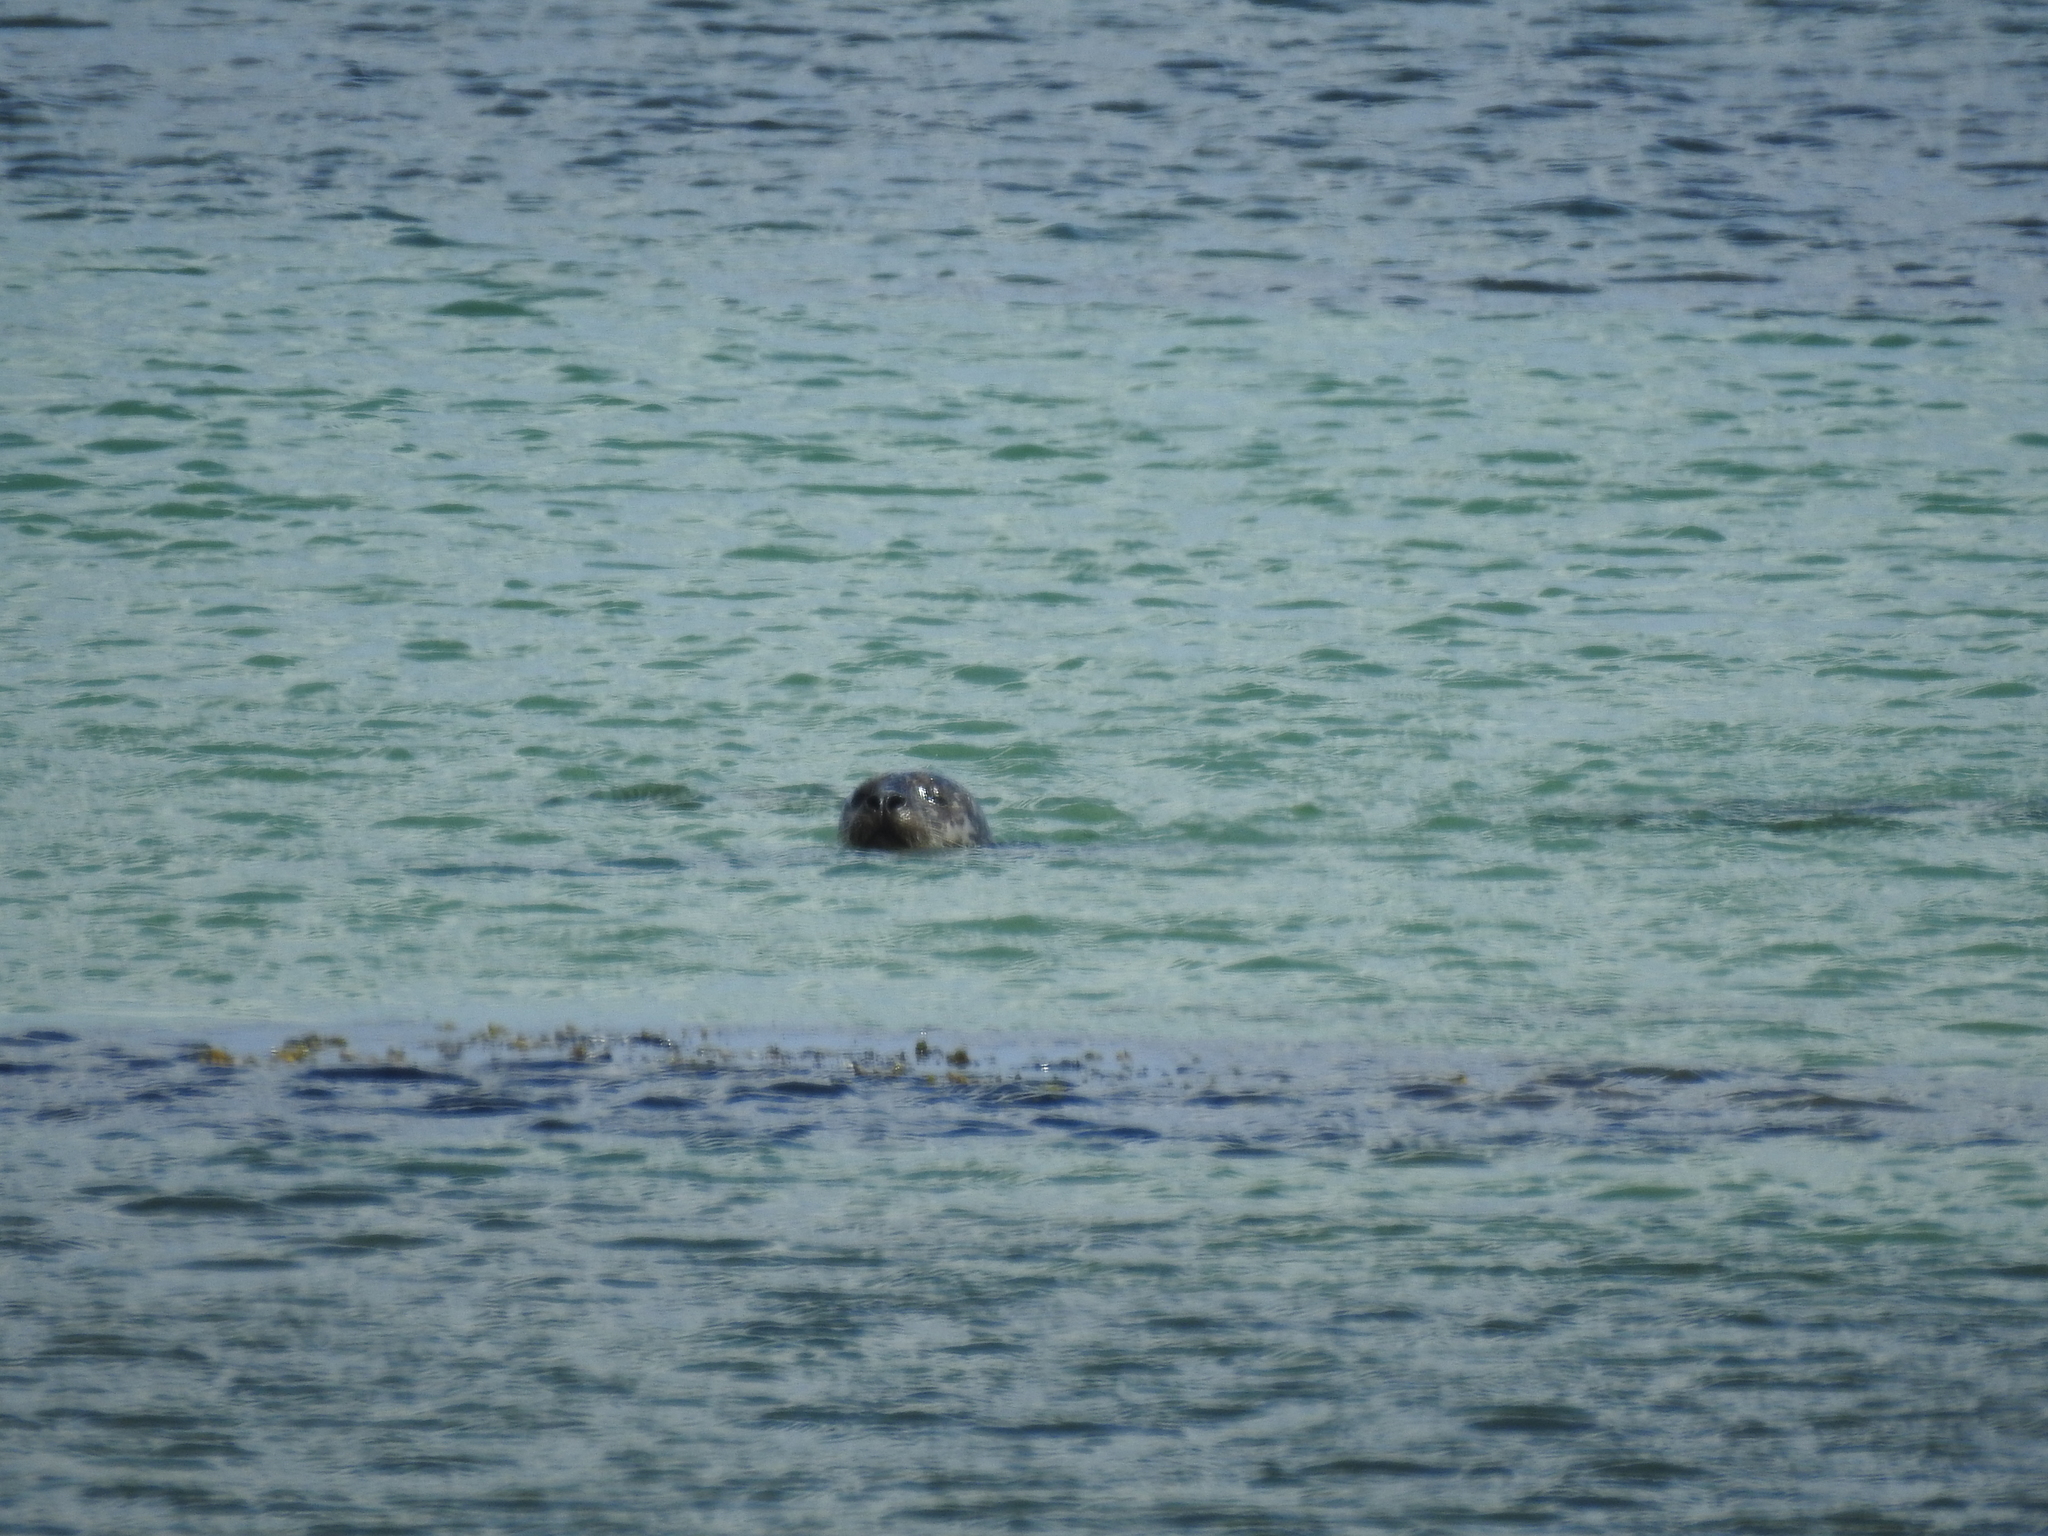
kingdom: Animalia
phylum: Chordata
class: Mammalia
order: Carnivora
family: Phocidae
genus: Phoca
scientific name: Phoca vitulina
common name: Harbor seal
